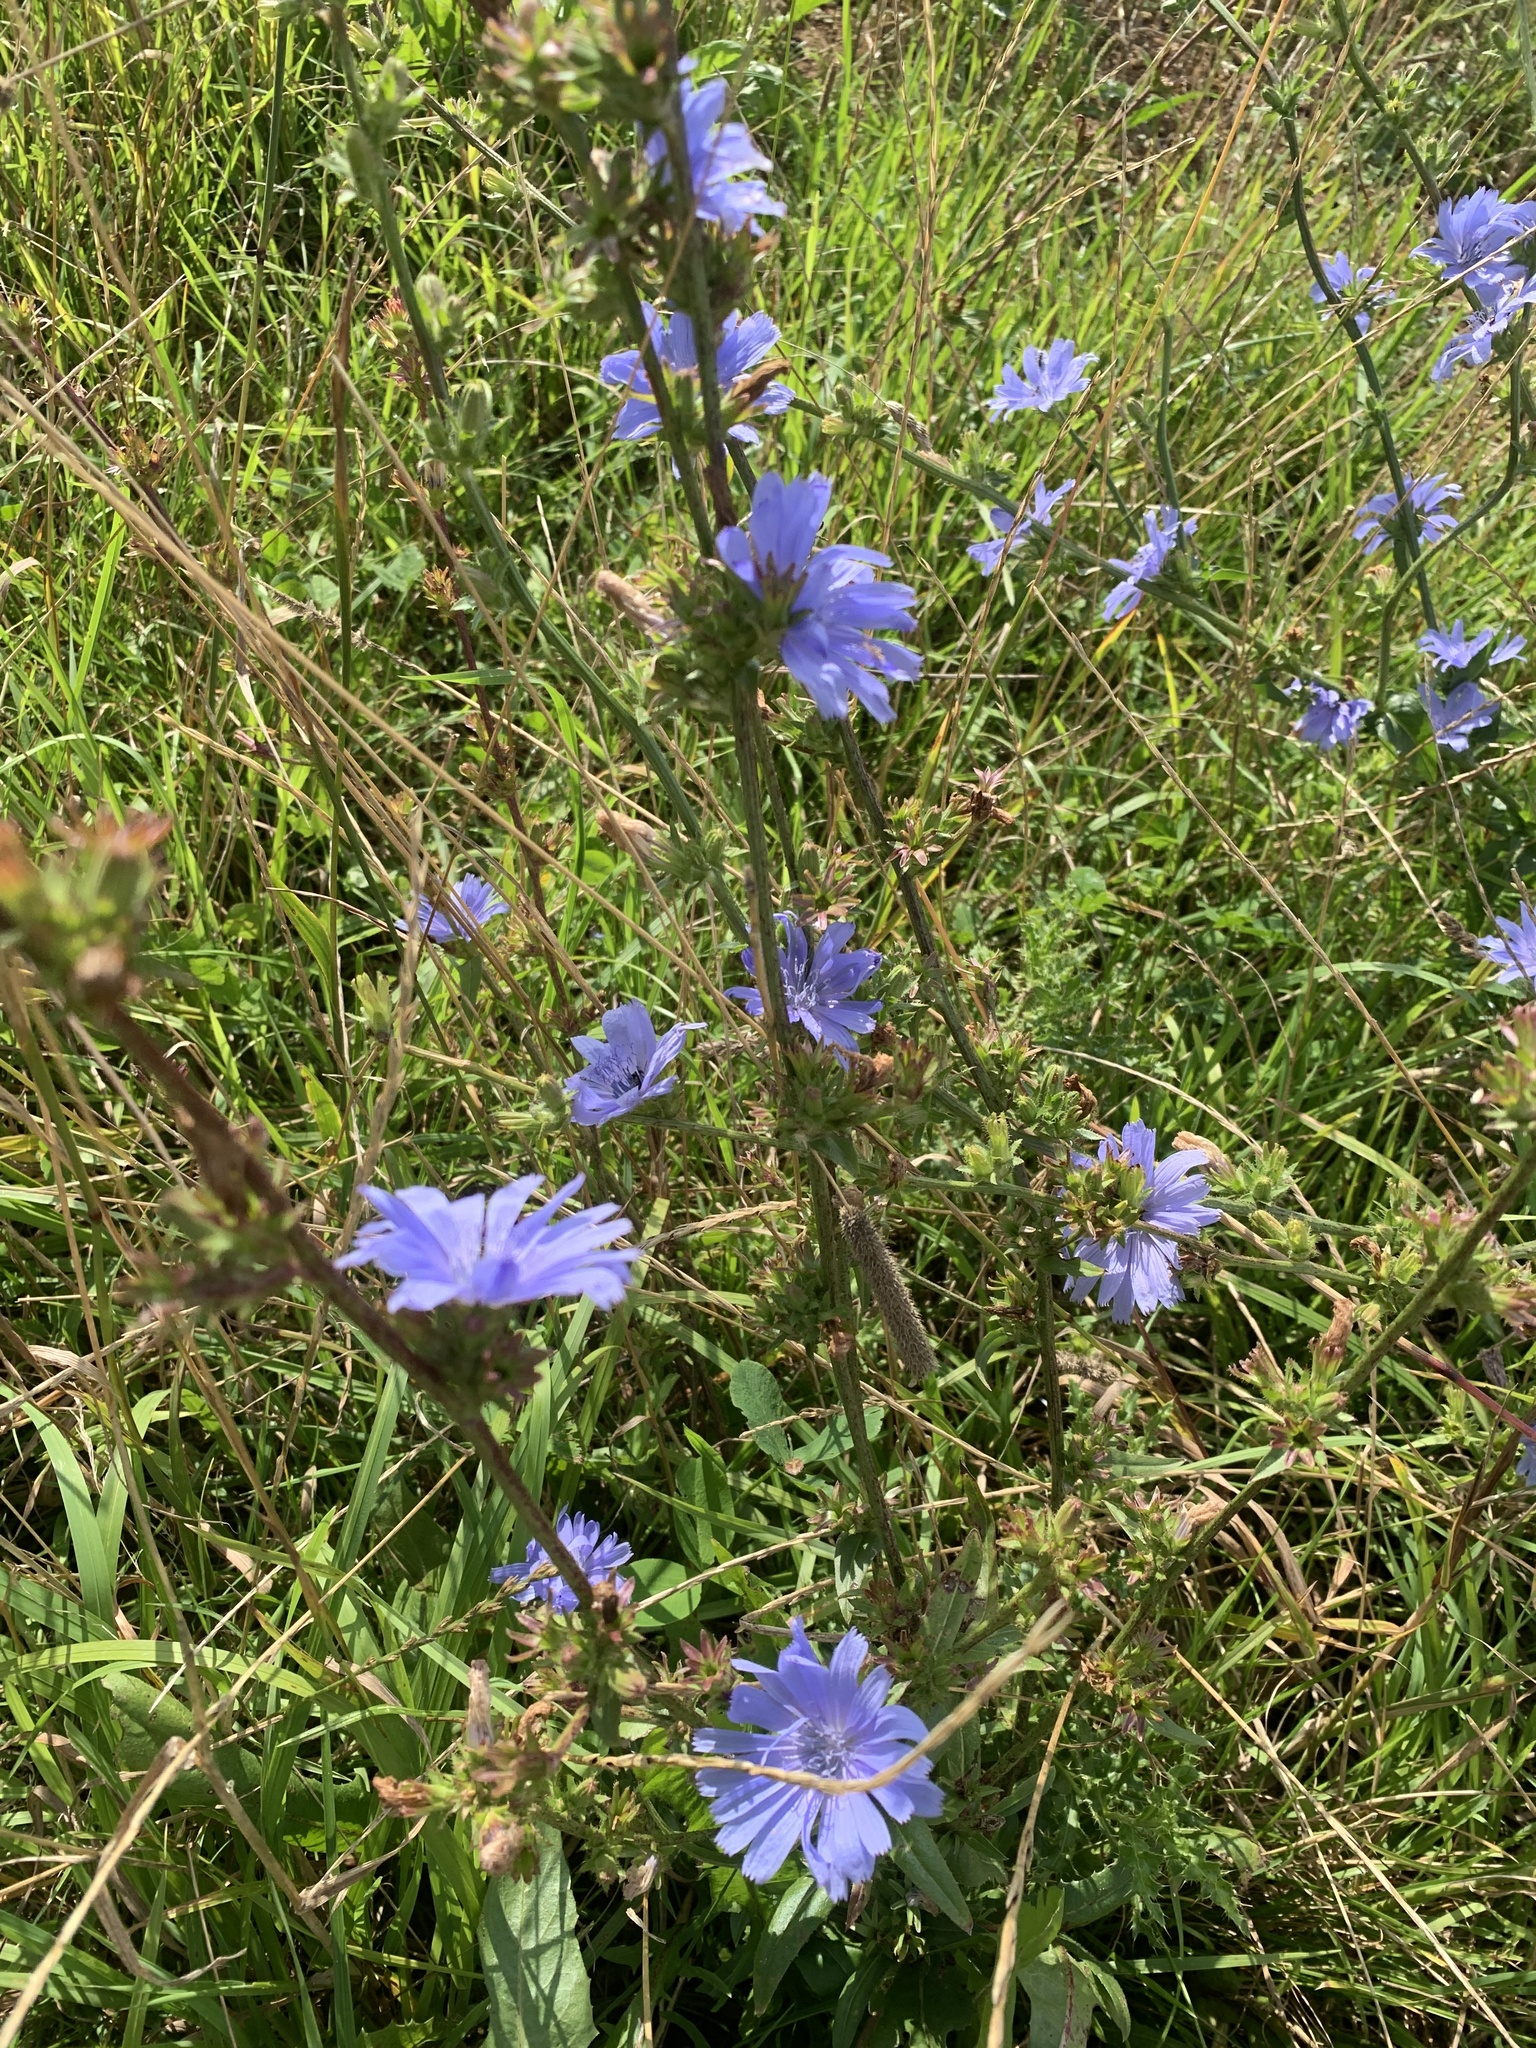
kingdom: Plantae
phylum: Tracheophyta
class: Magnoliopsida
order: Asterales
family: Asteraceae
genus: Cichorium
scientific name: Cichorium intybus
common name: Chicory
